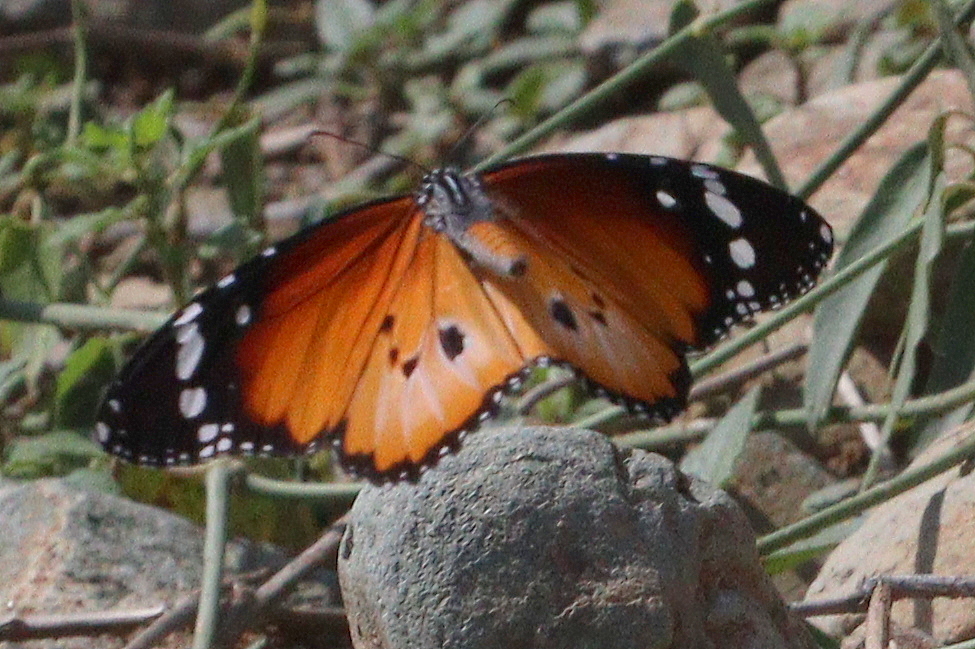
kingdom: Animalia
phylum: Arthropoda
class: Insecta
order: Lepidoptera
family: Nymphalidae
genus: Danaus
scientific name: Danaus chrysippus
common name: Plain tiger
